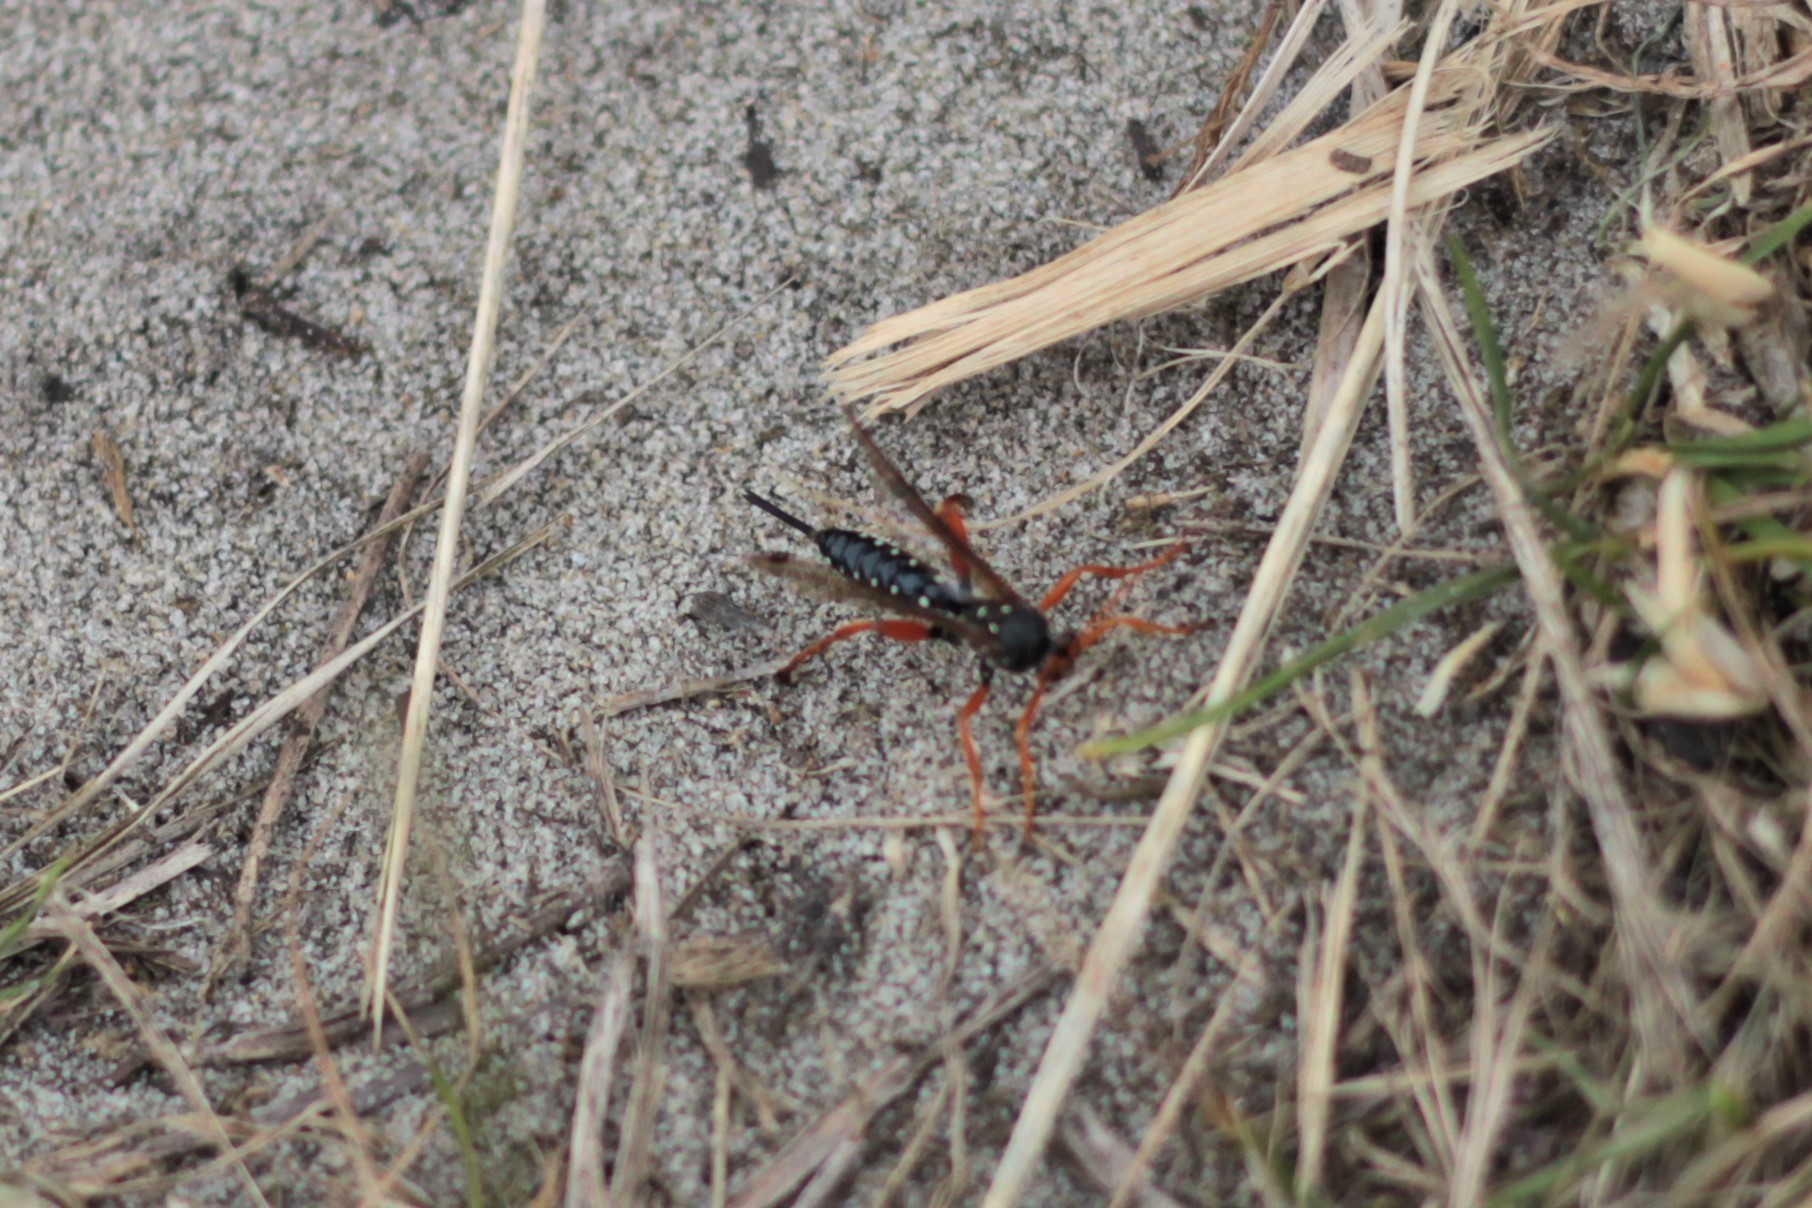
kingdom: Animalia
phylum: Arthropoda
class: Insecta
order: Hymenoptera
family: Ichneumonidae
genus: Echthromorpha
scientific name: Echthromorpha intricatoria
